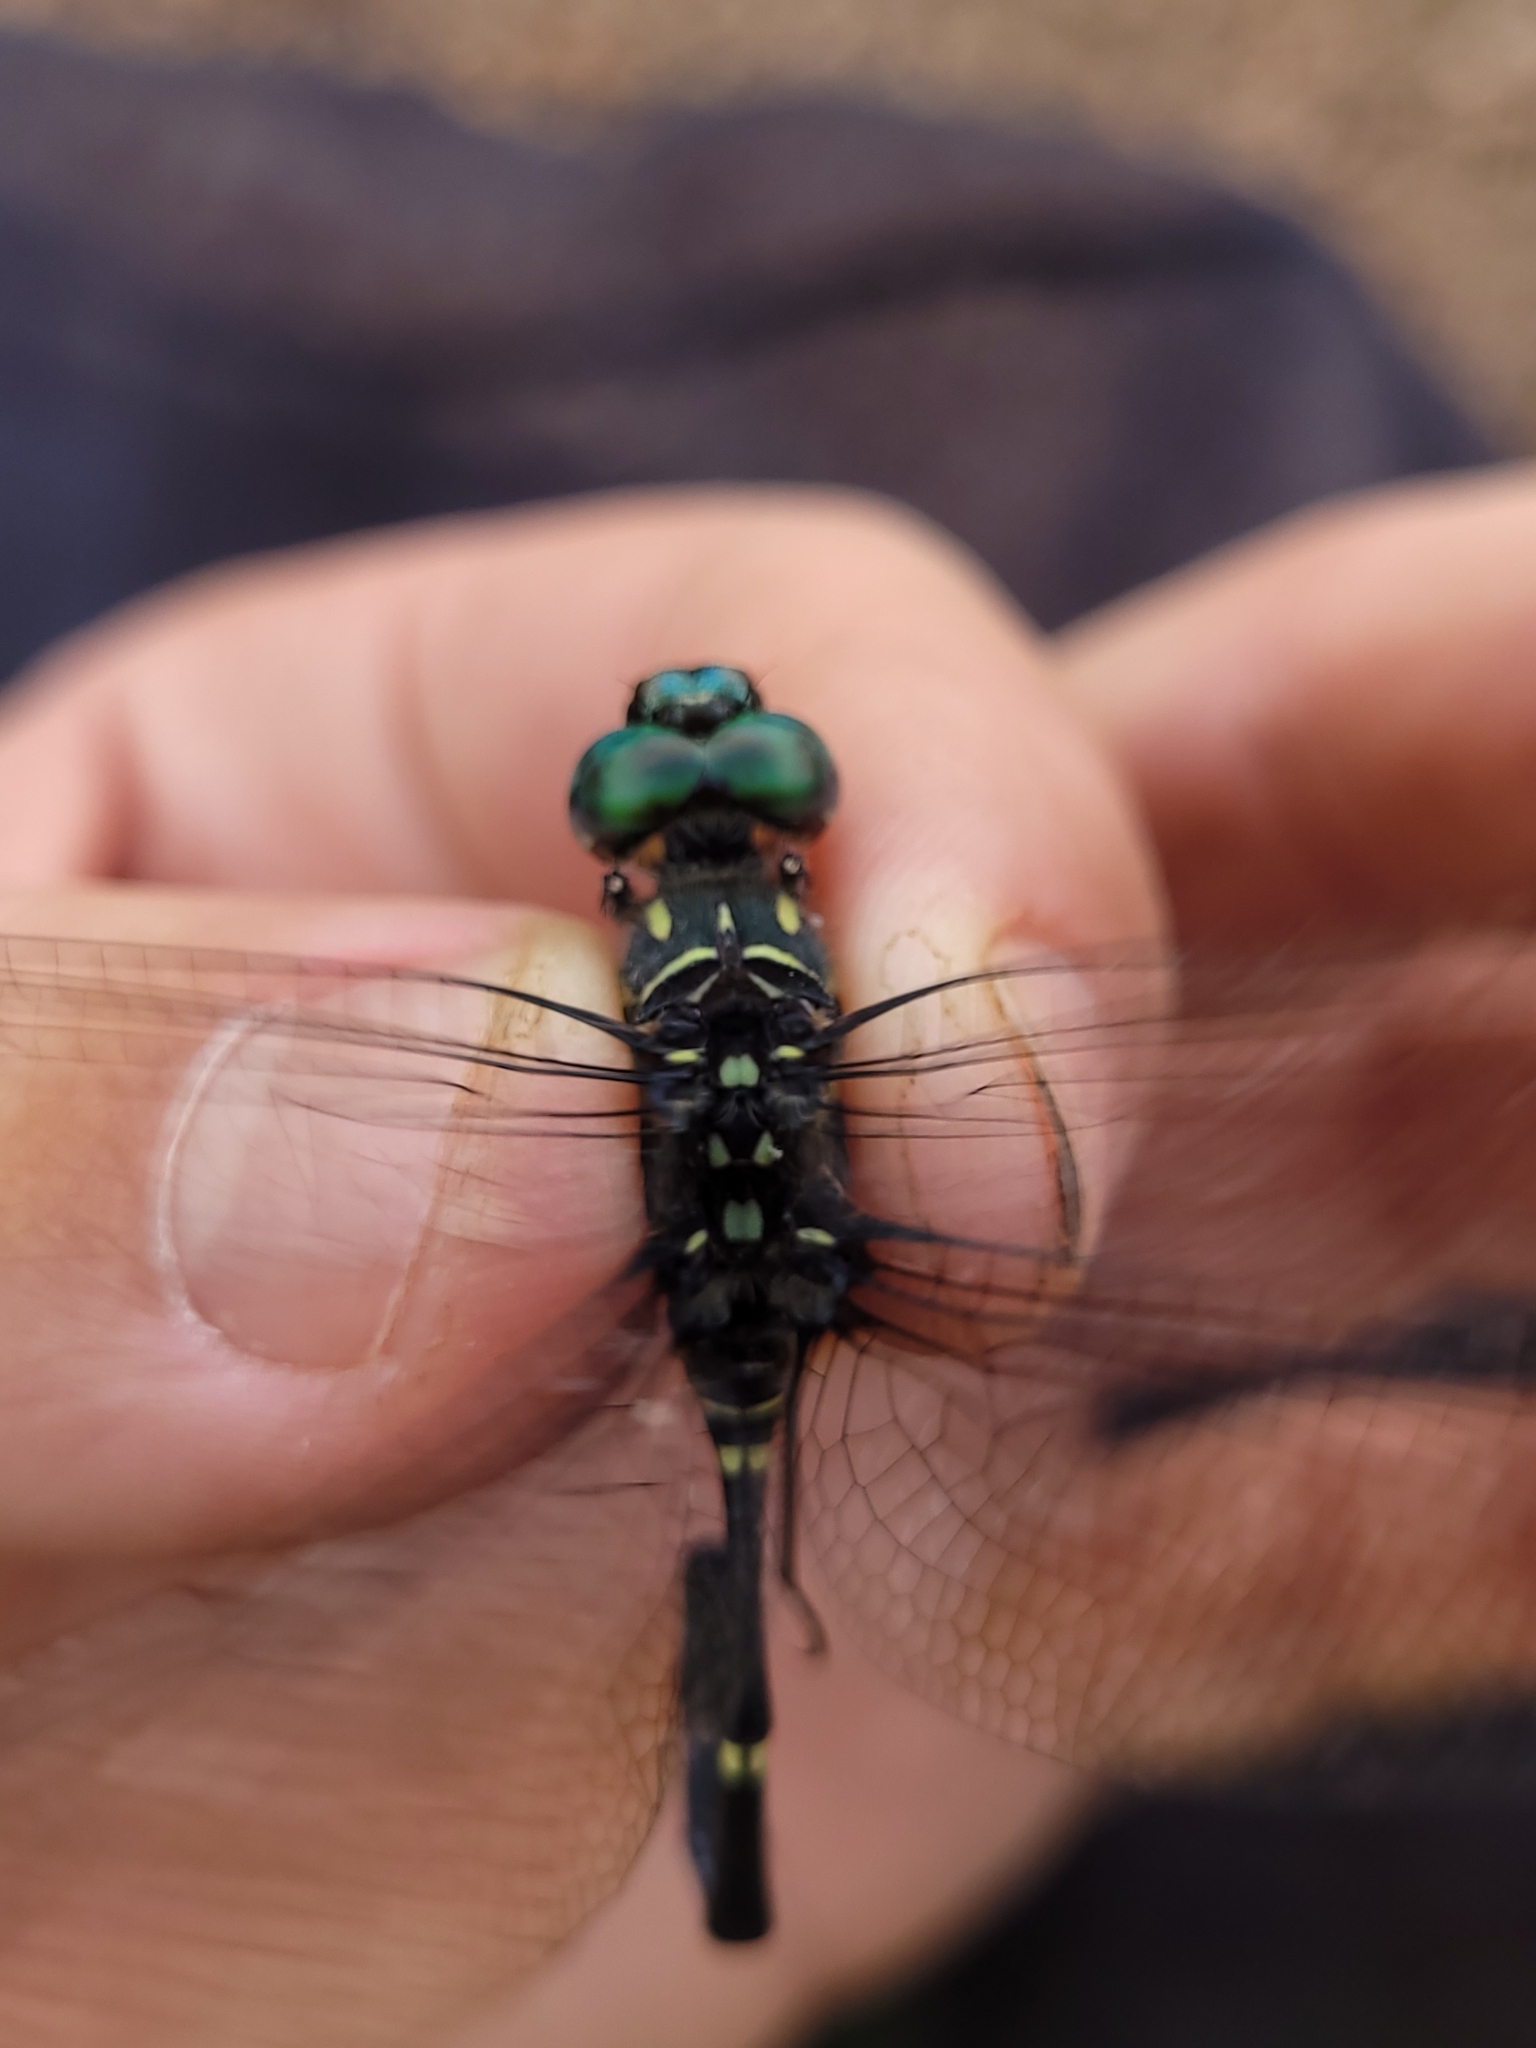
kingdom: Animalia
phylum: Arthropoda
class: Insecta
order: Odonata
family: Libellulidae
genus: Olpogastra
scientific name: Olpogastra lugubris
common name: Bottletail
